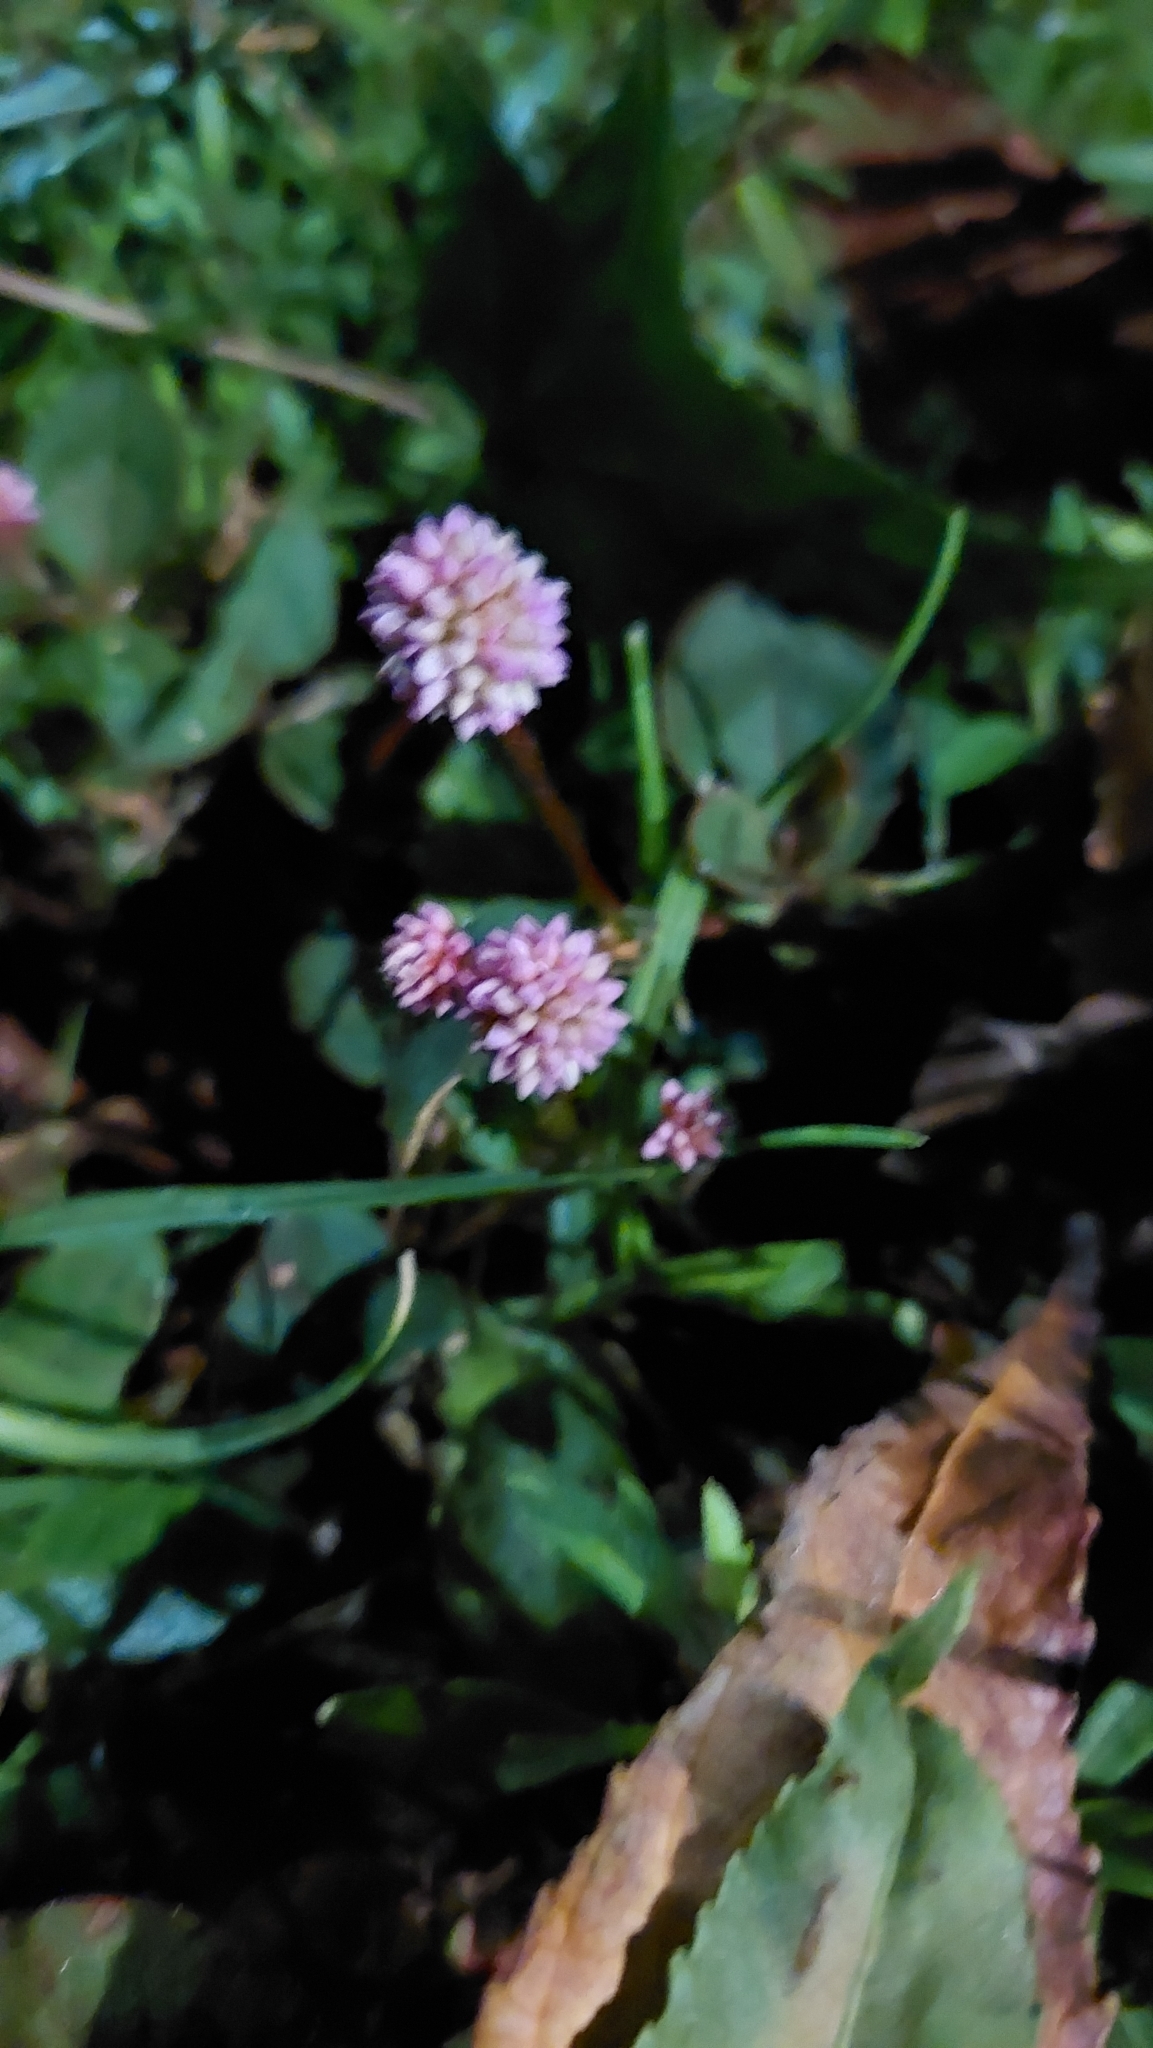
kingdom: Plantae
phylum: Tracheophyta
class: Magnoliopsida
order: Caryophyllales
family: Polygonaceae
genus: Persicaria
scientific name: Persicaria capitata
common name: Pinkhead smartweed
